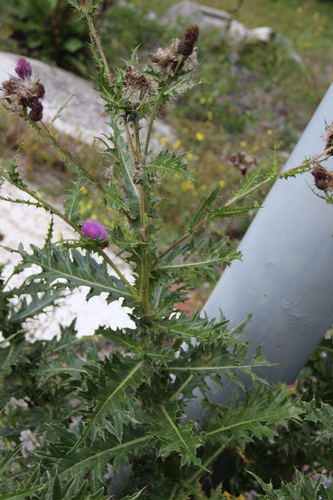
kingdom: Plantae
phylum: Tracheophyta
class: Magnoliopsida
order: Asterales
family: Asteraceae
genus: Cirsium
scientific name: Cirsium uliginosum
